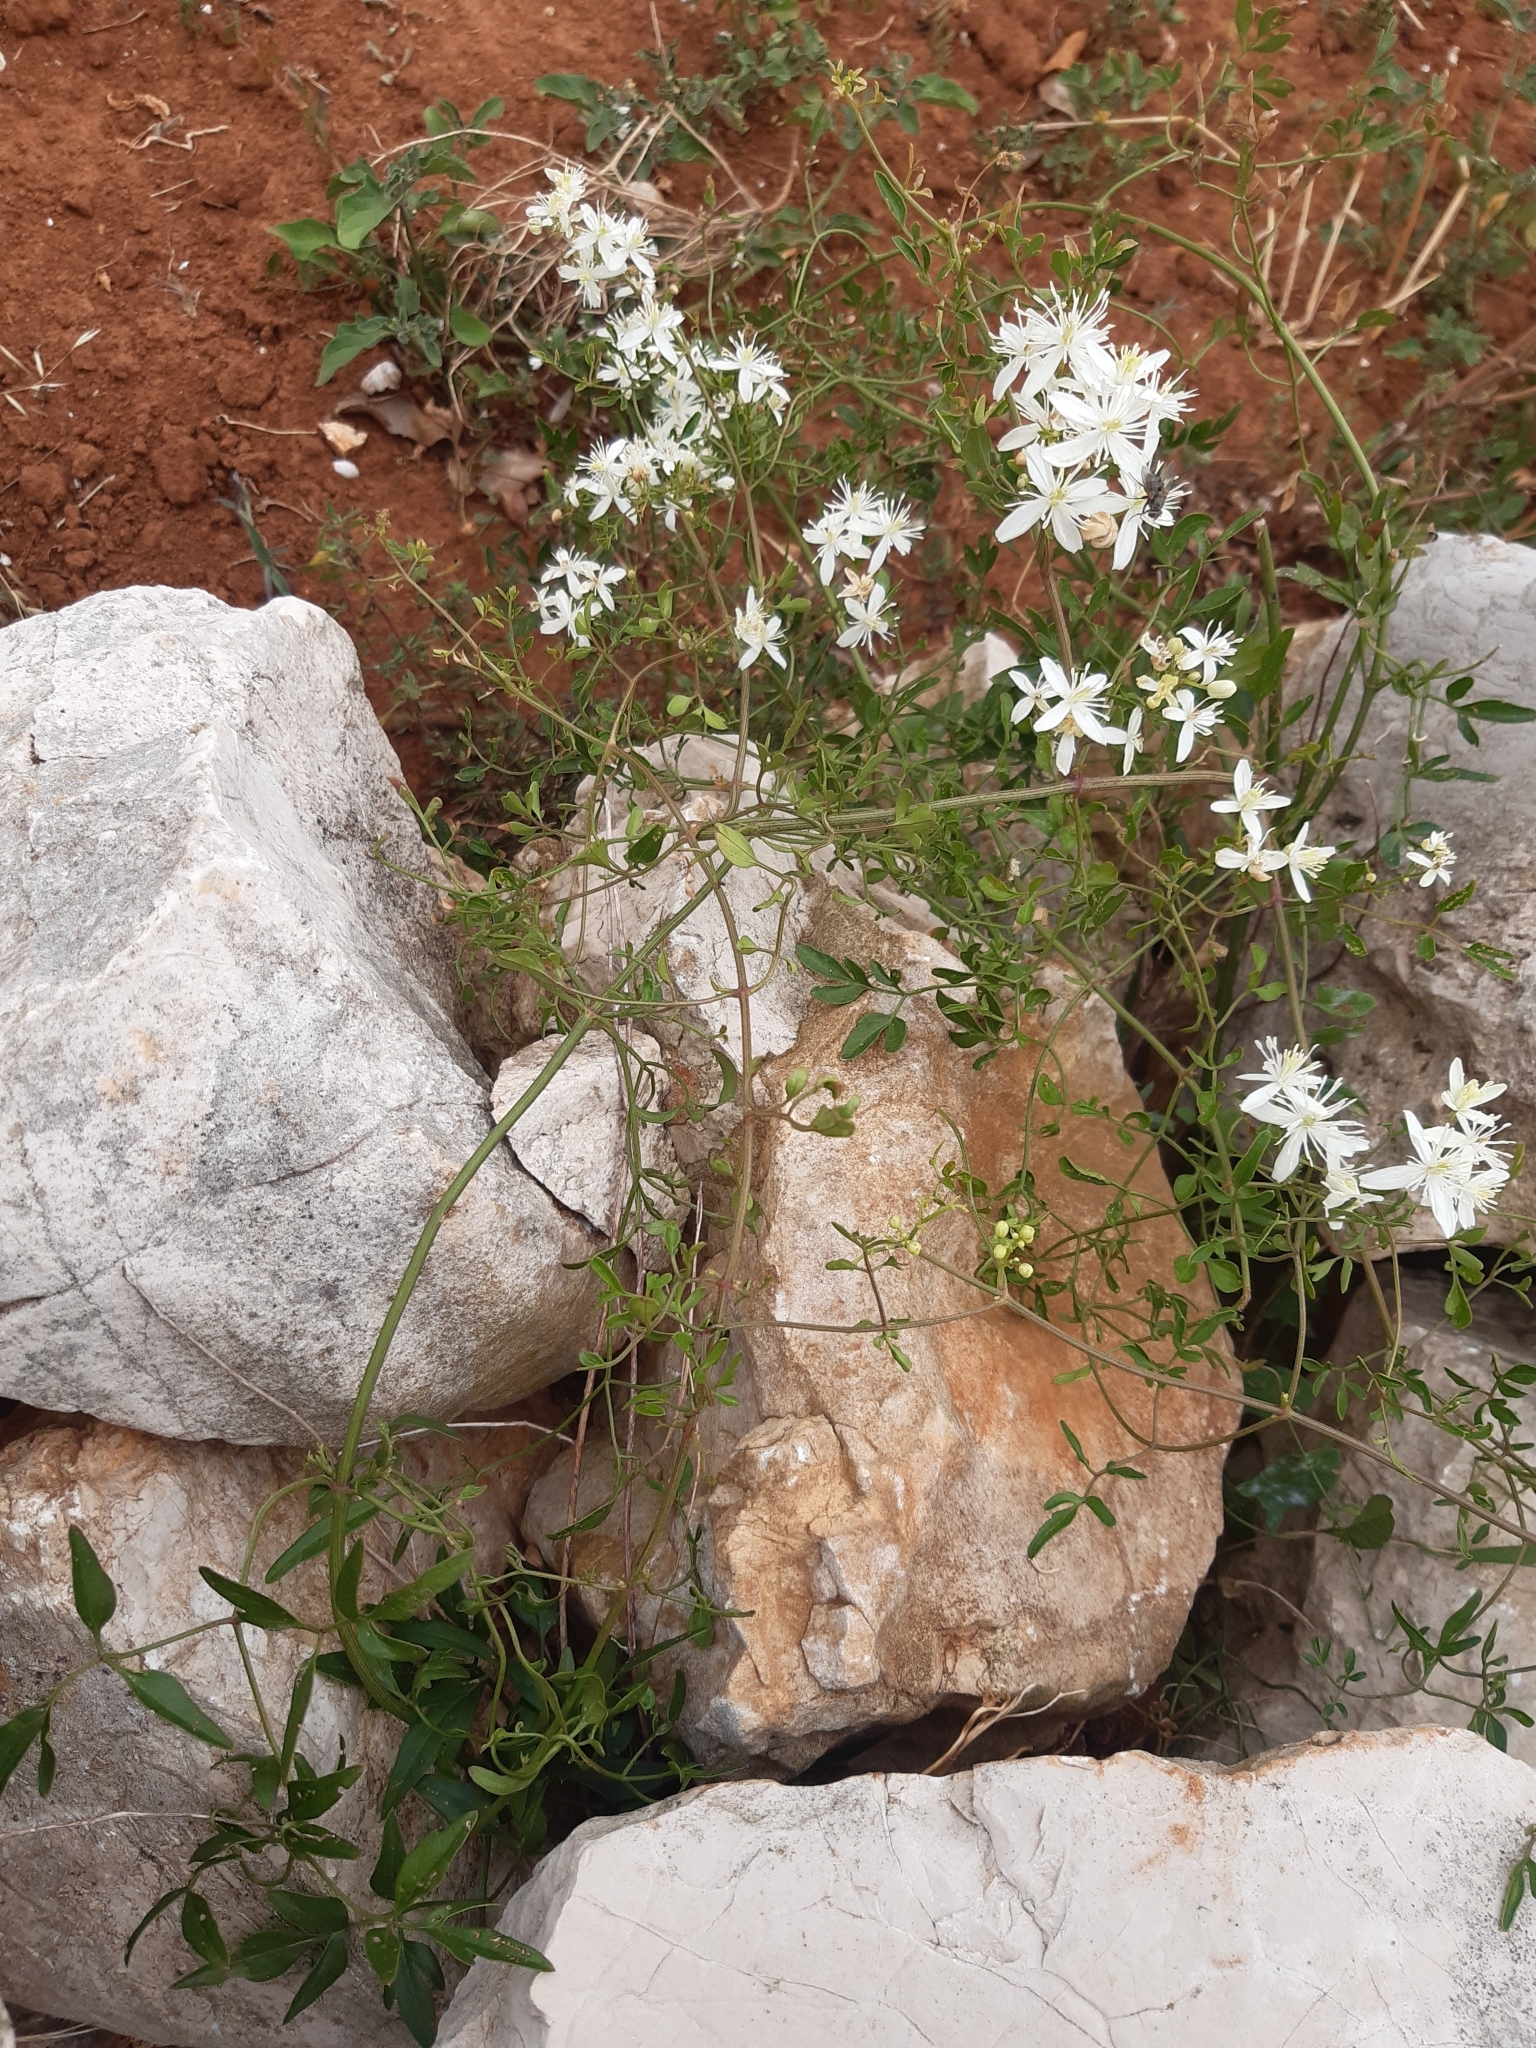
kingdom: Plantae
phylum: Tracheophyta
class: Magnoliopsida
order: Ranunculales
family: Ranunculaceae
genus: Clematis
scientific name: Clematis flammula
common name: Virgin's-bower
